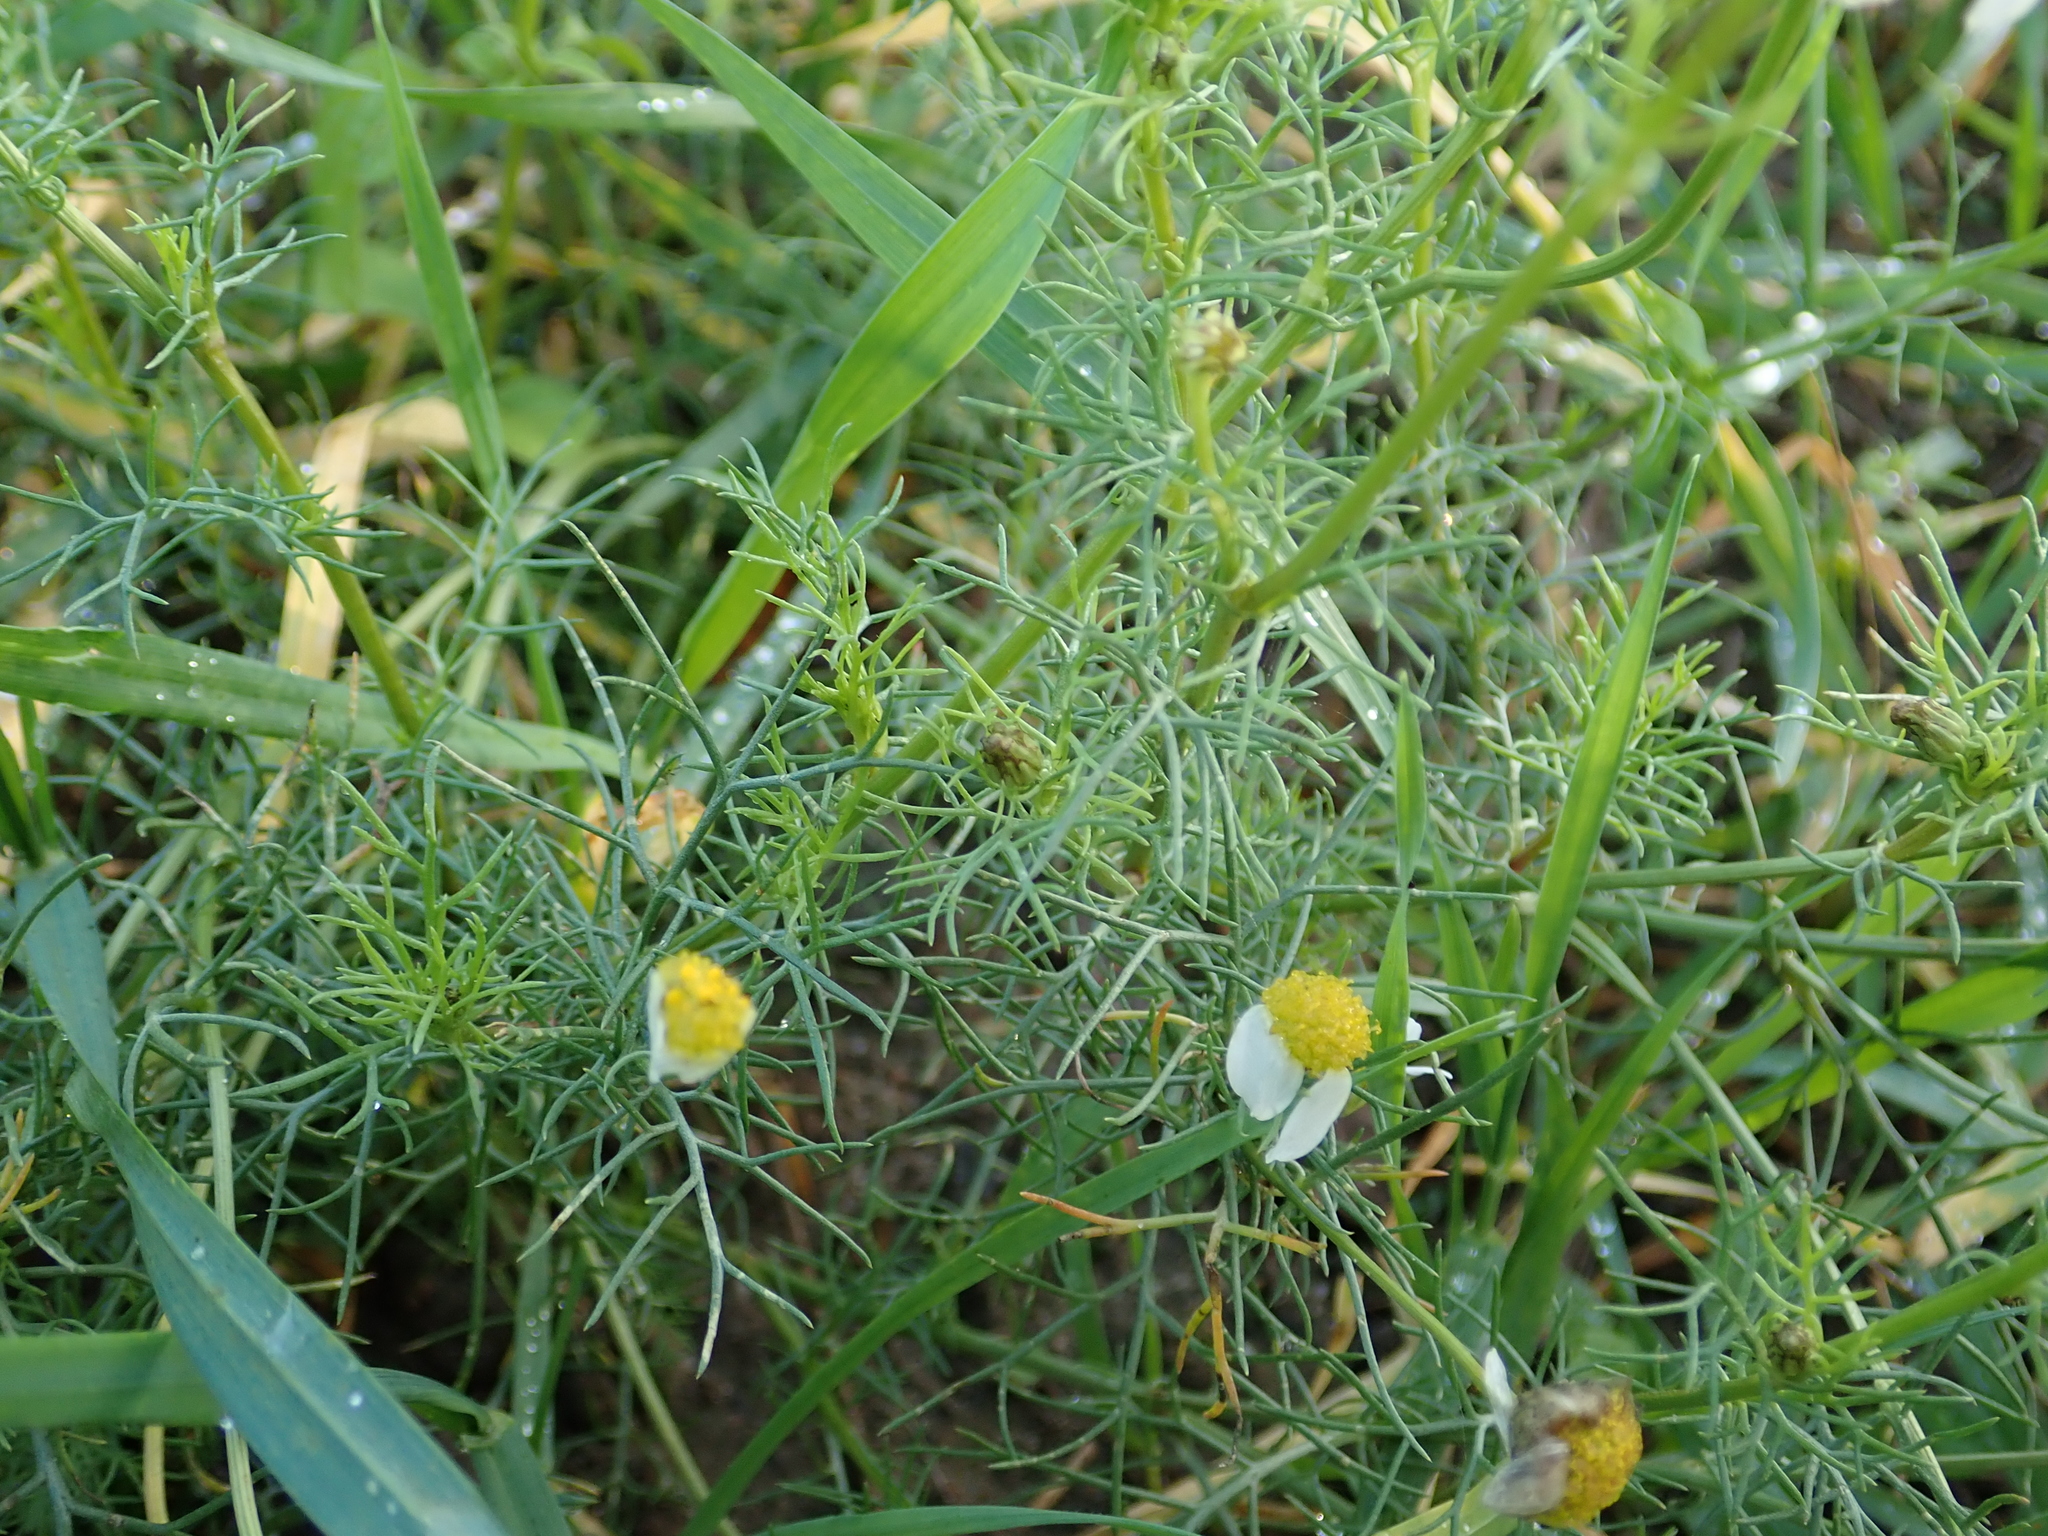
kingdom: Plantae
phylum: Tracheophyta
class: Magnoliopsida
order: Asterales
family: Asteraceae
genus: Tripleurospermum
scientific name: Tripleurospermum inodorum
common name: Scentless mayweed
